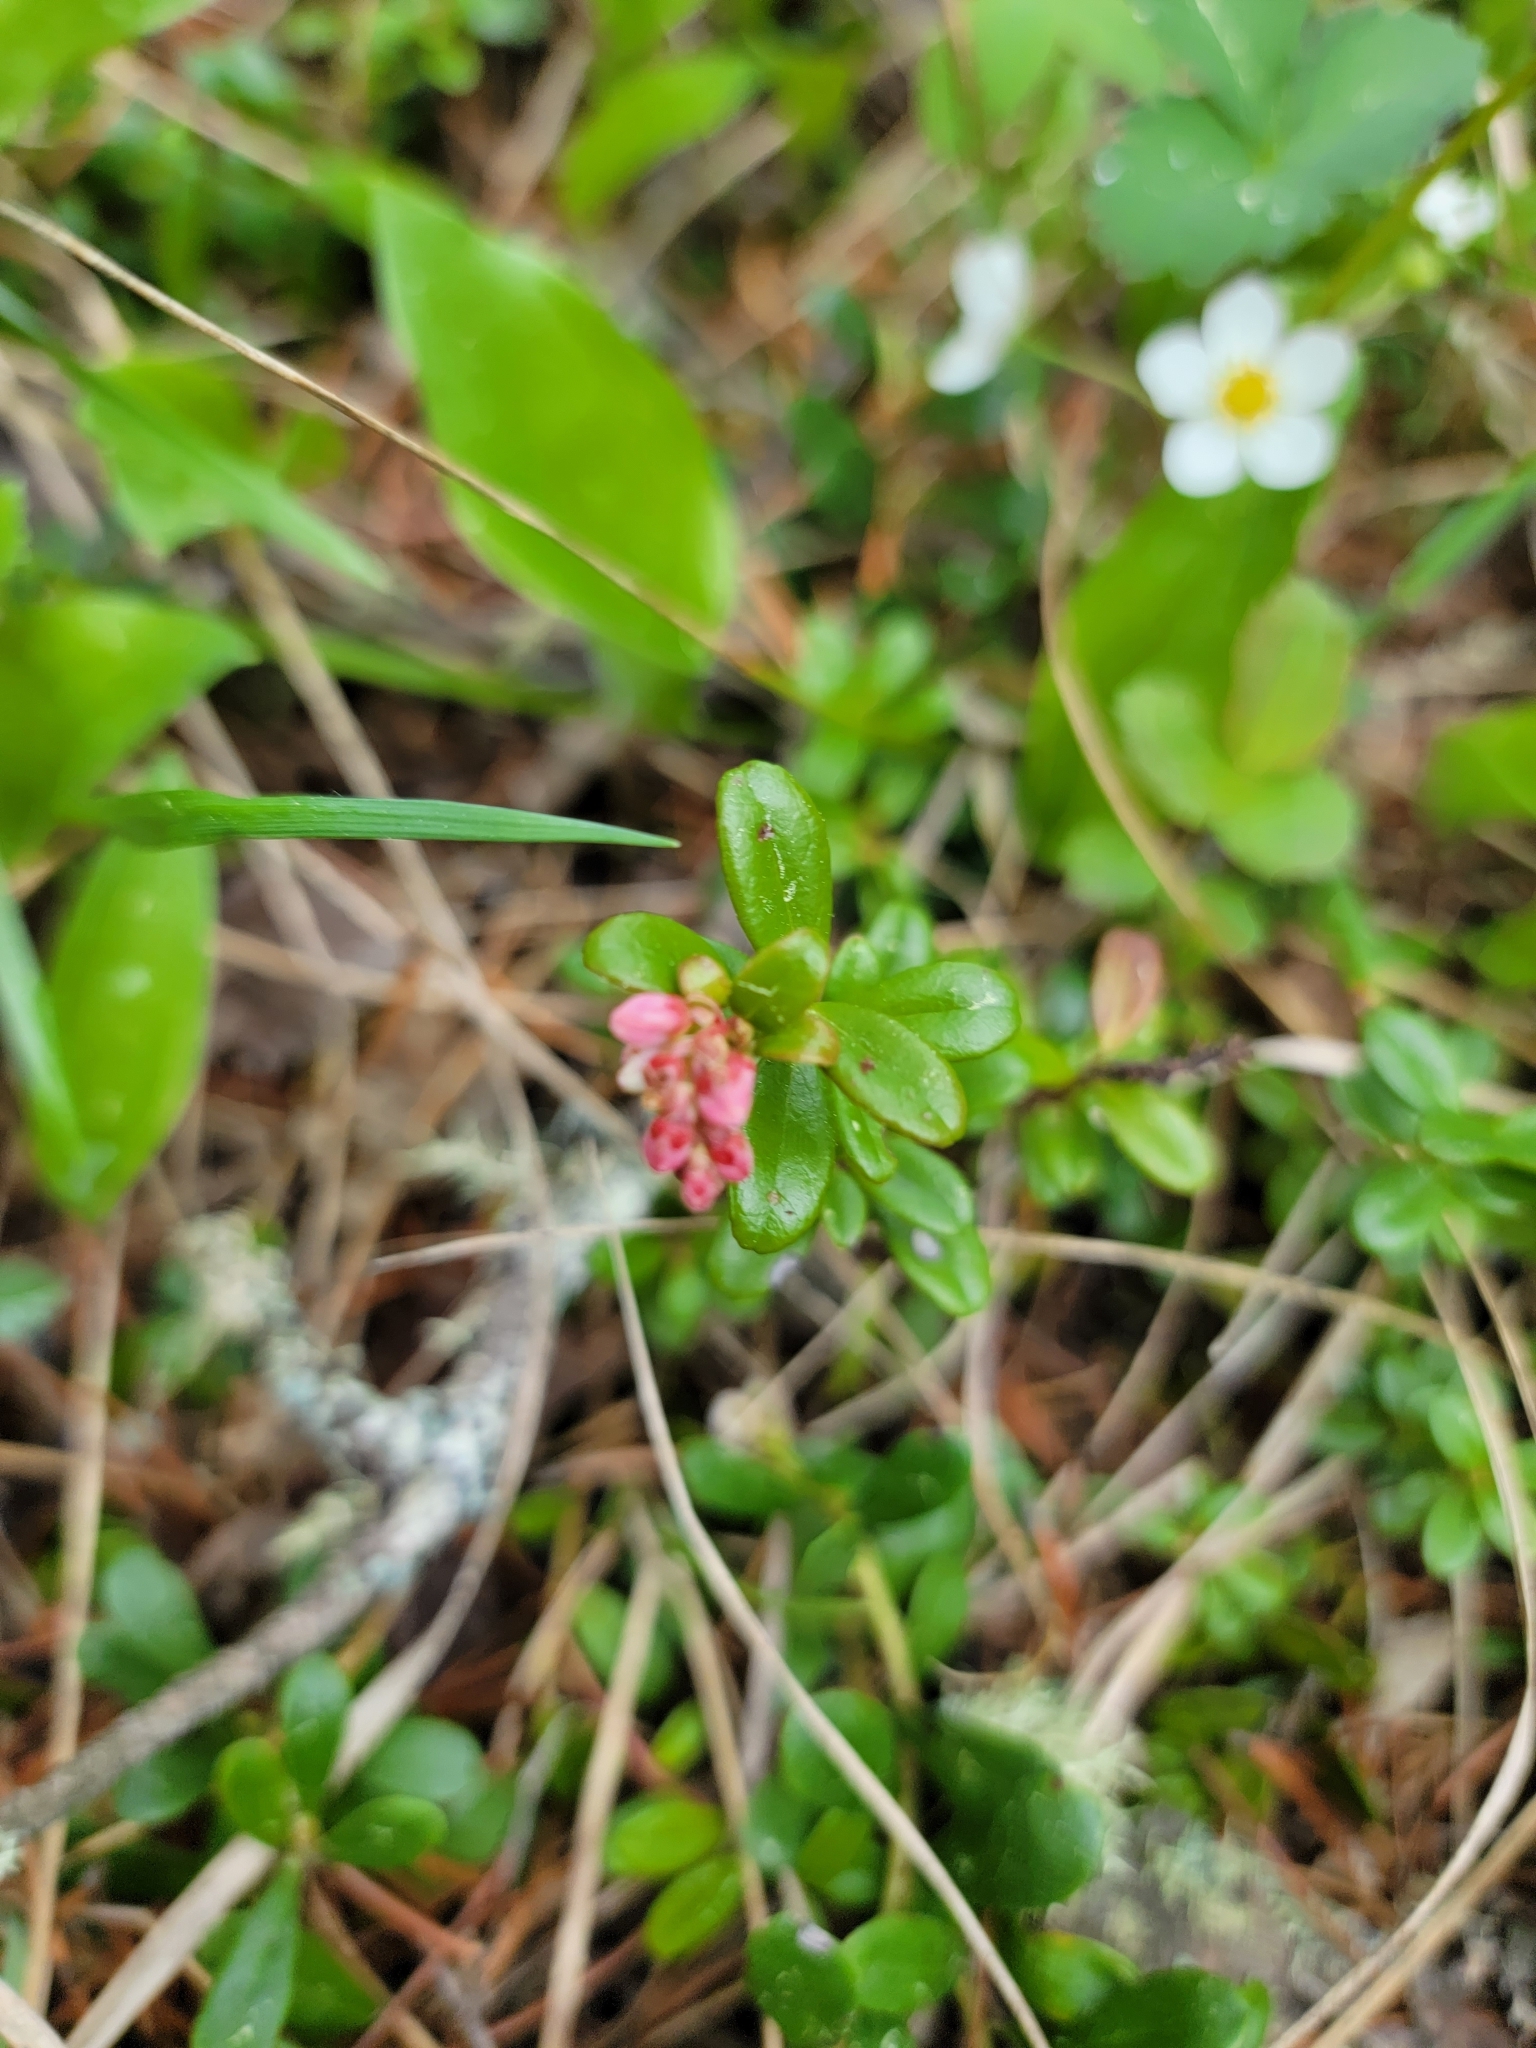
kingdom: Plantae
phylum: Tracheophyta
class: Magnoliopsida
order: Ericales
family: Ericaceae
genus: Vaccinium
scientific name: Vaccinium vitis-idaea
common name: Cowberry
